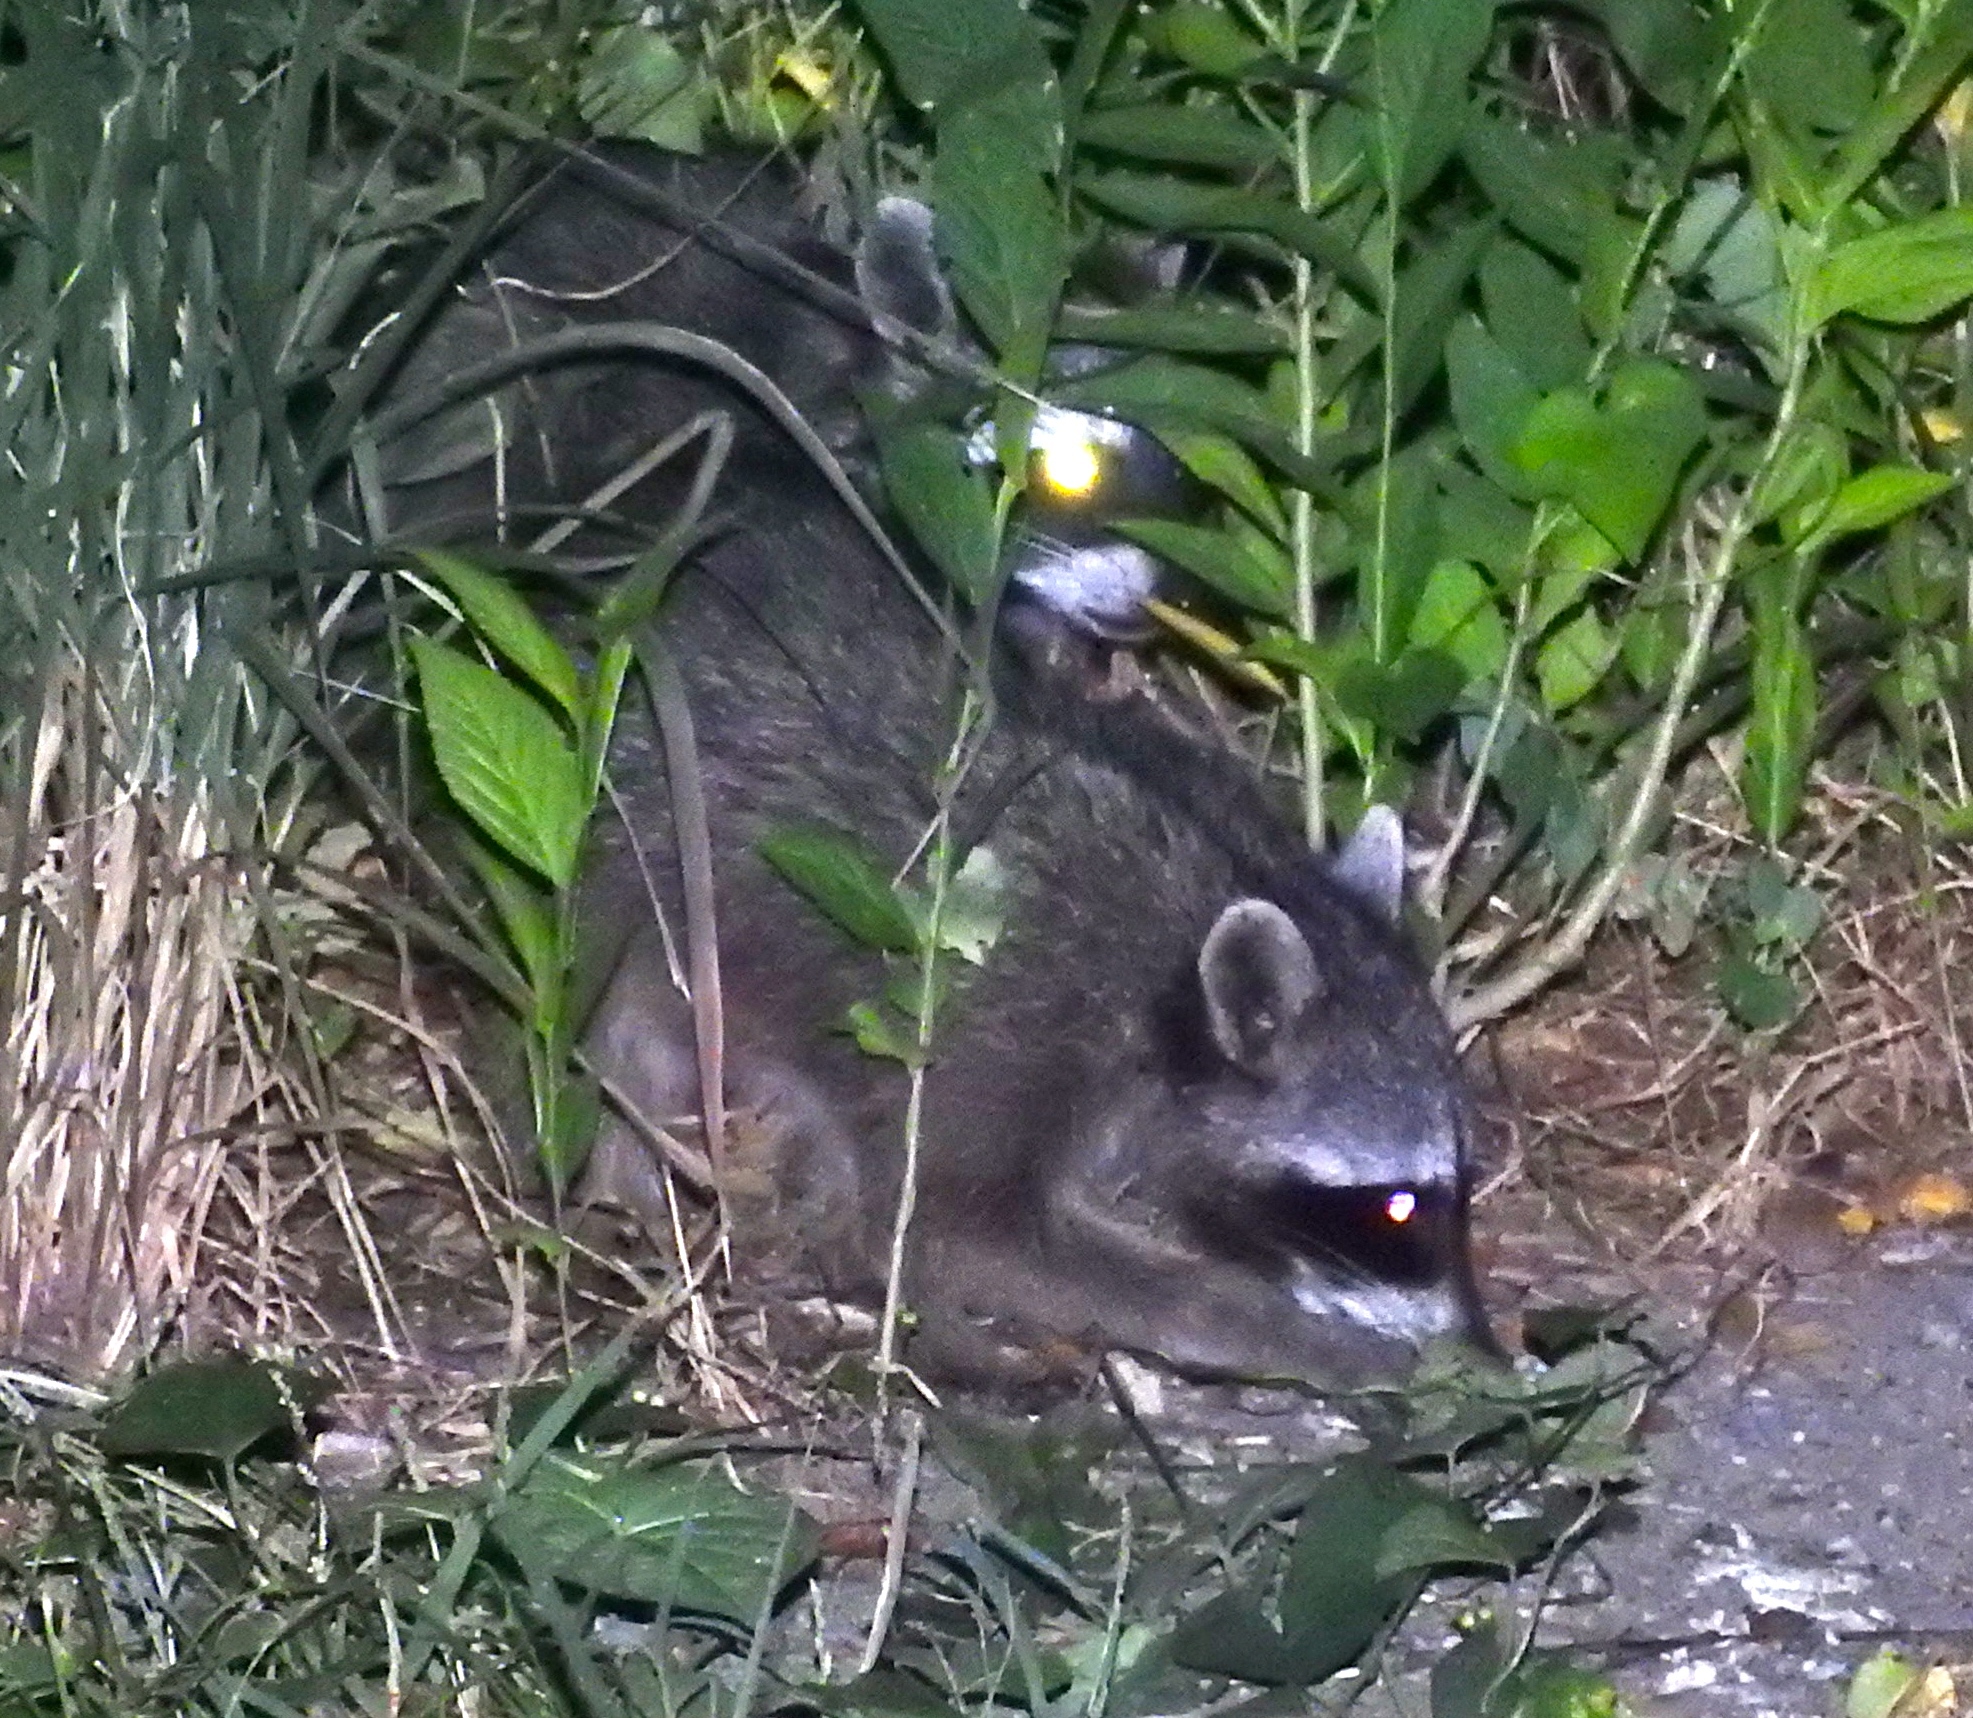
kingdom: Animalia
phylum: Chordata
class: Mammalia
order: Carnivora
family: Procyonidae
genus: Procyon
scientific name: Procyon lotor
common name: Raccoon
